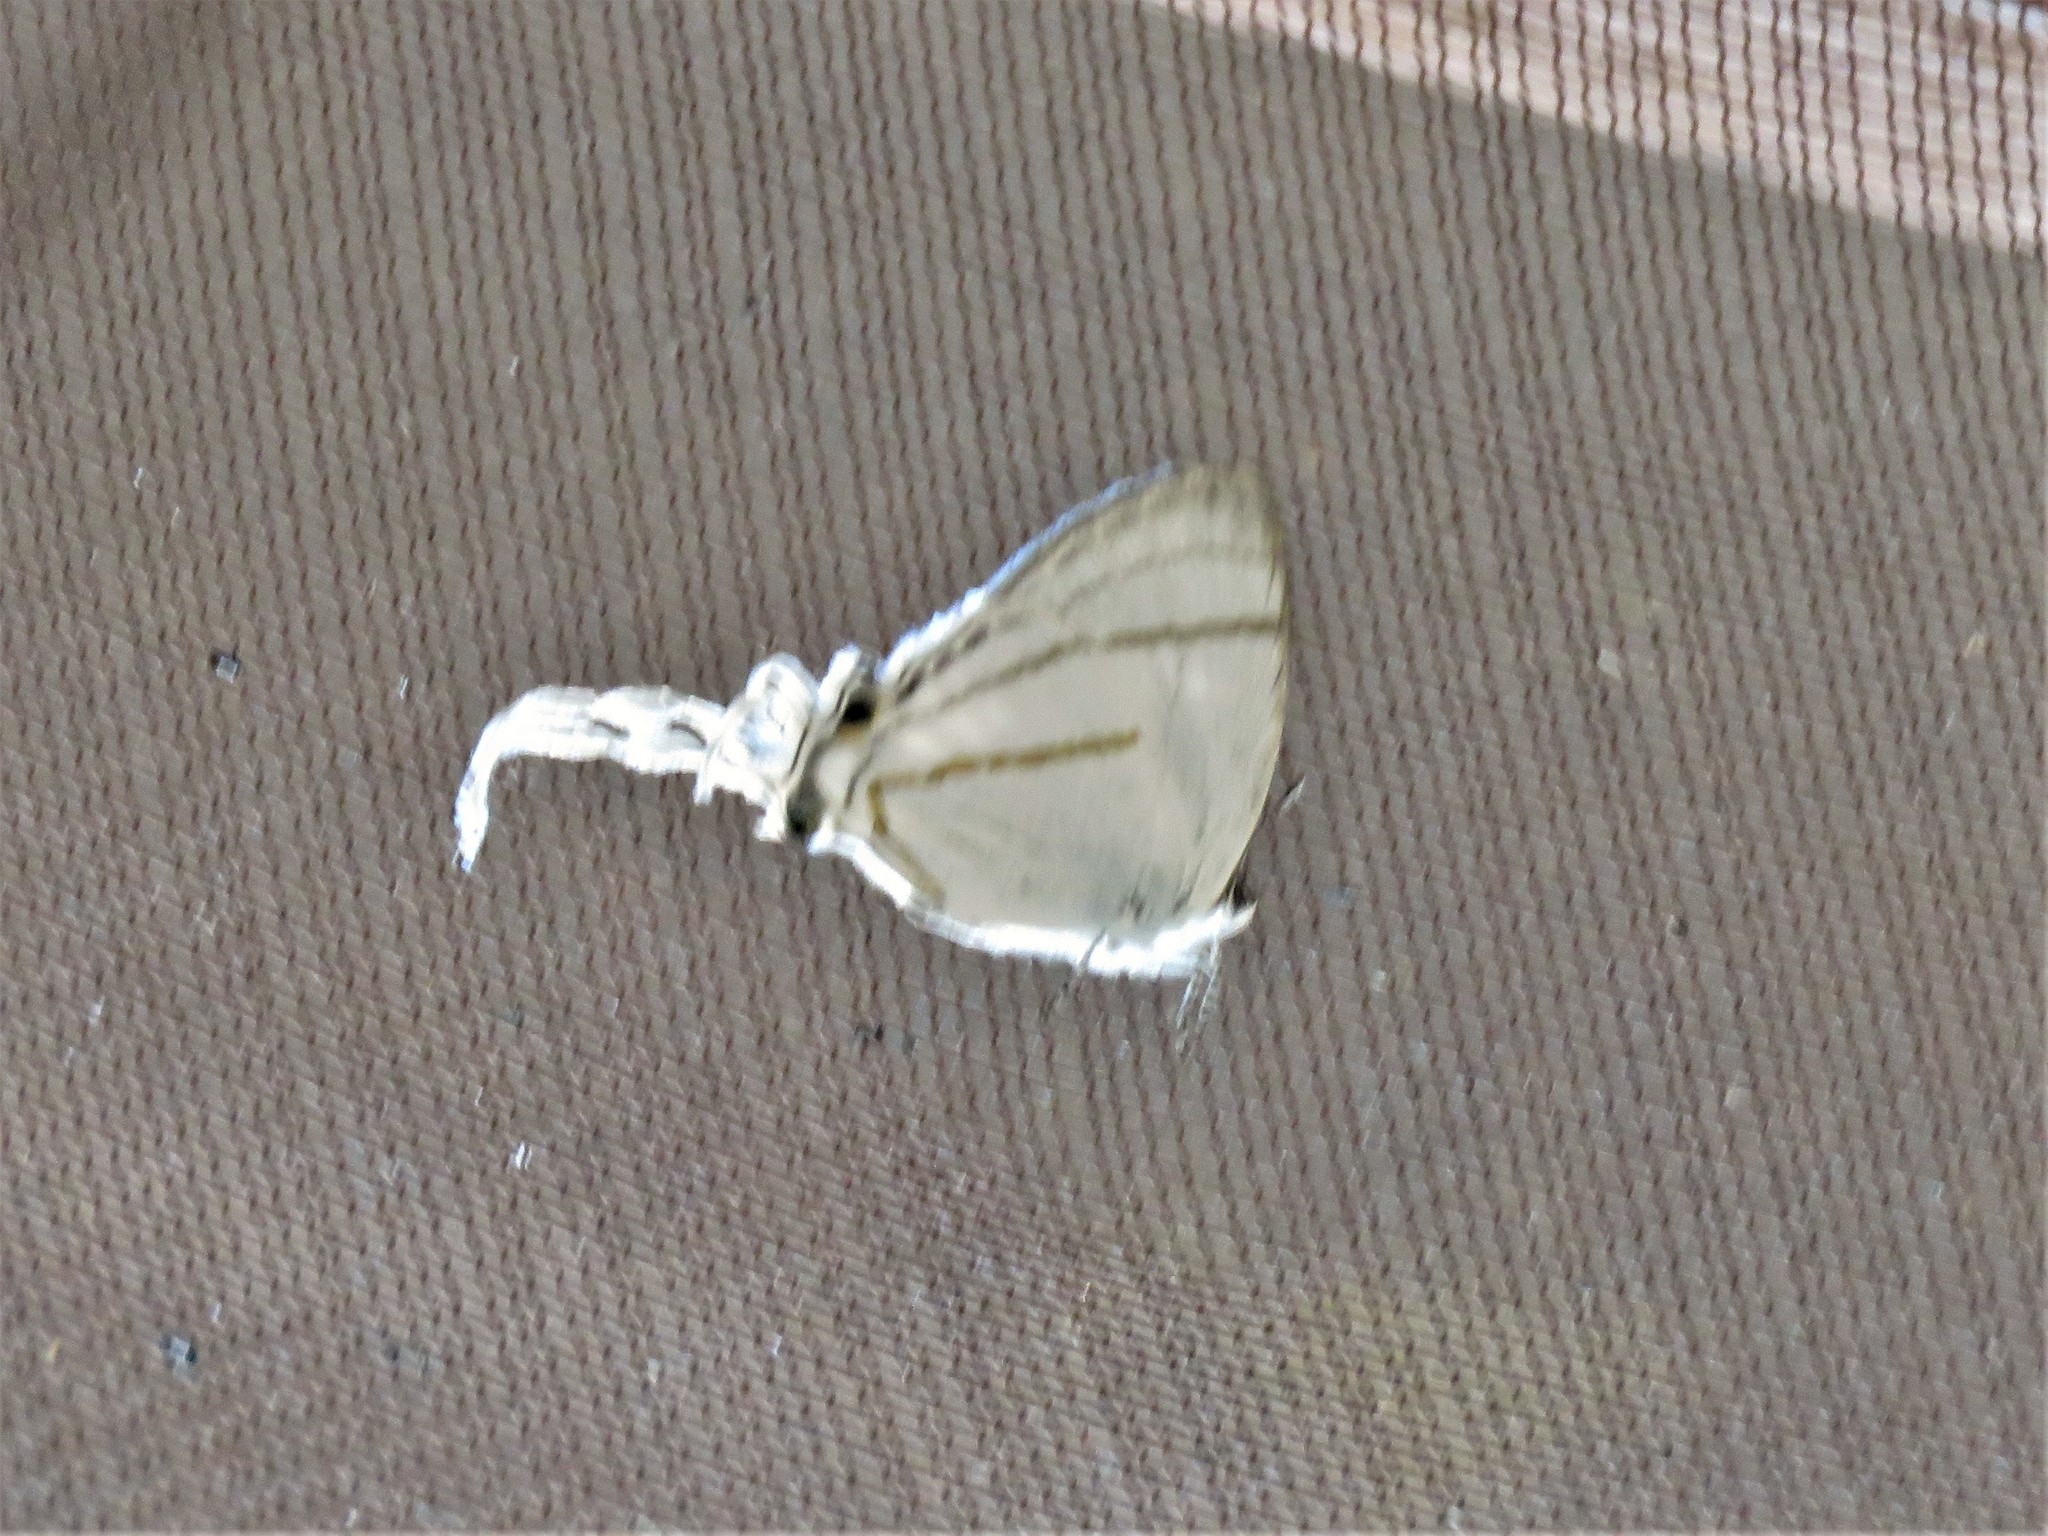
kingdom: Animalia
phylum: Arthropoda
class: Insecta
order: Lepidoptera
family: Lycaenidae
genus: Hypolycaena
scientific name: Hypolycaena hatita
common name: Common fairy hairstreak
